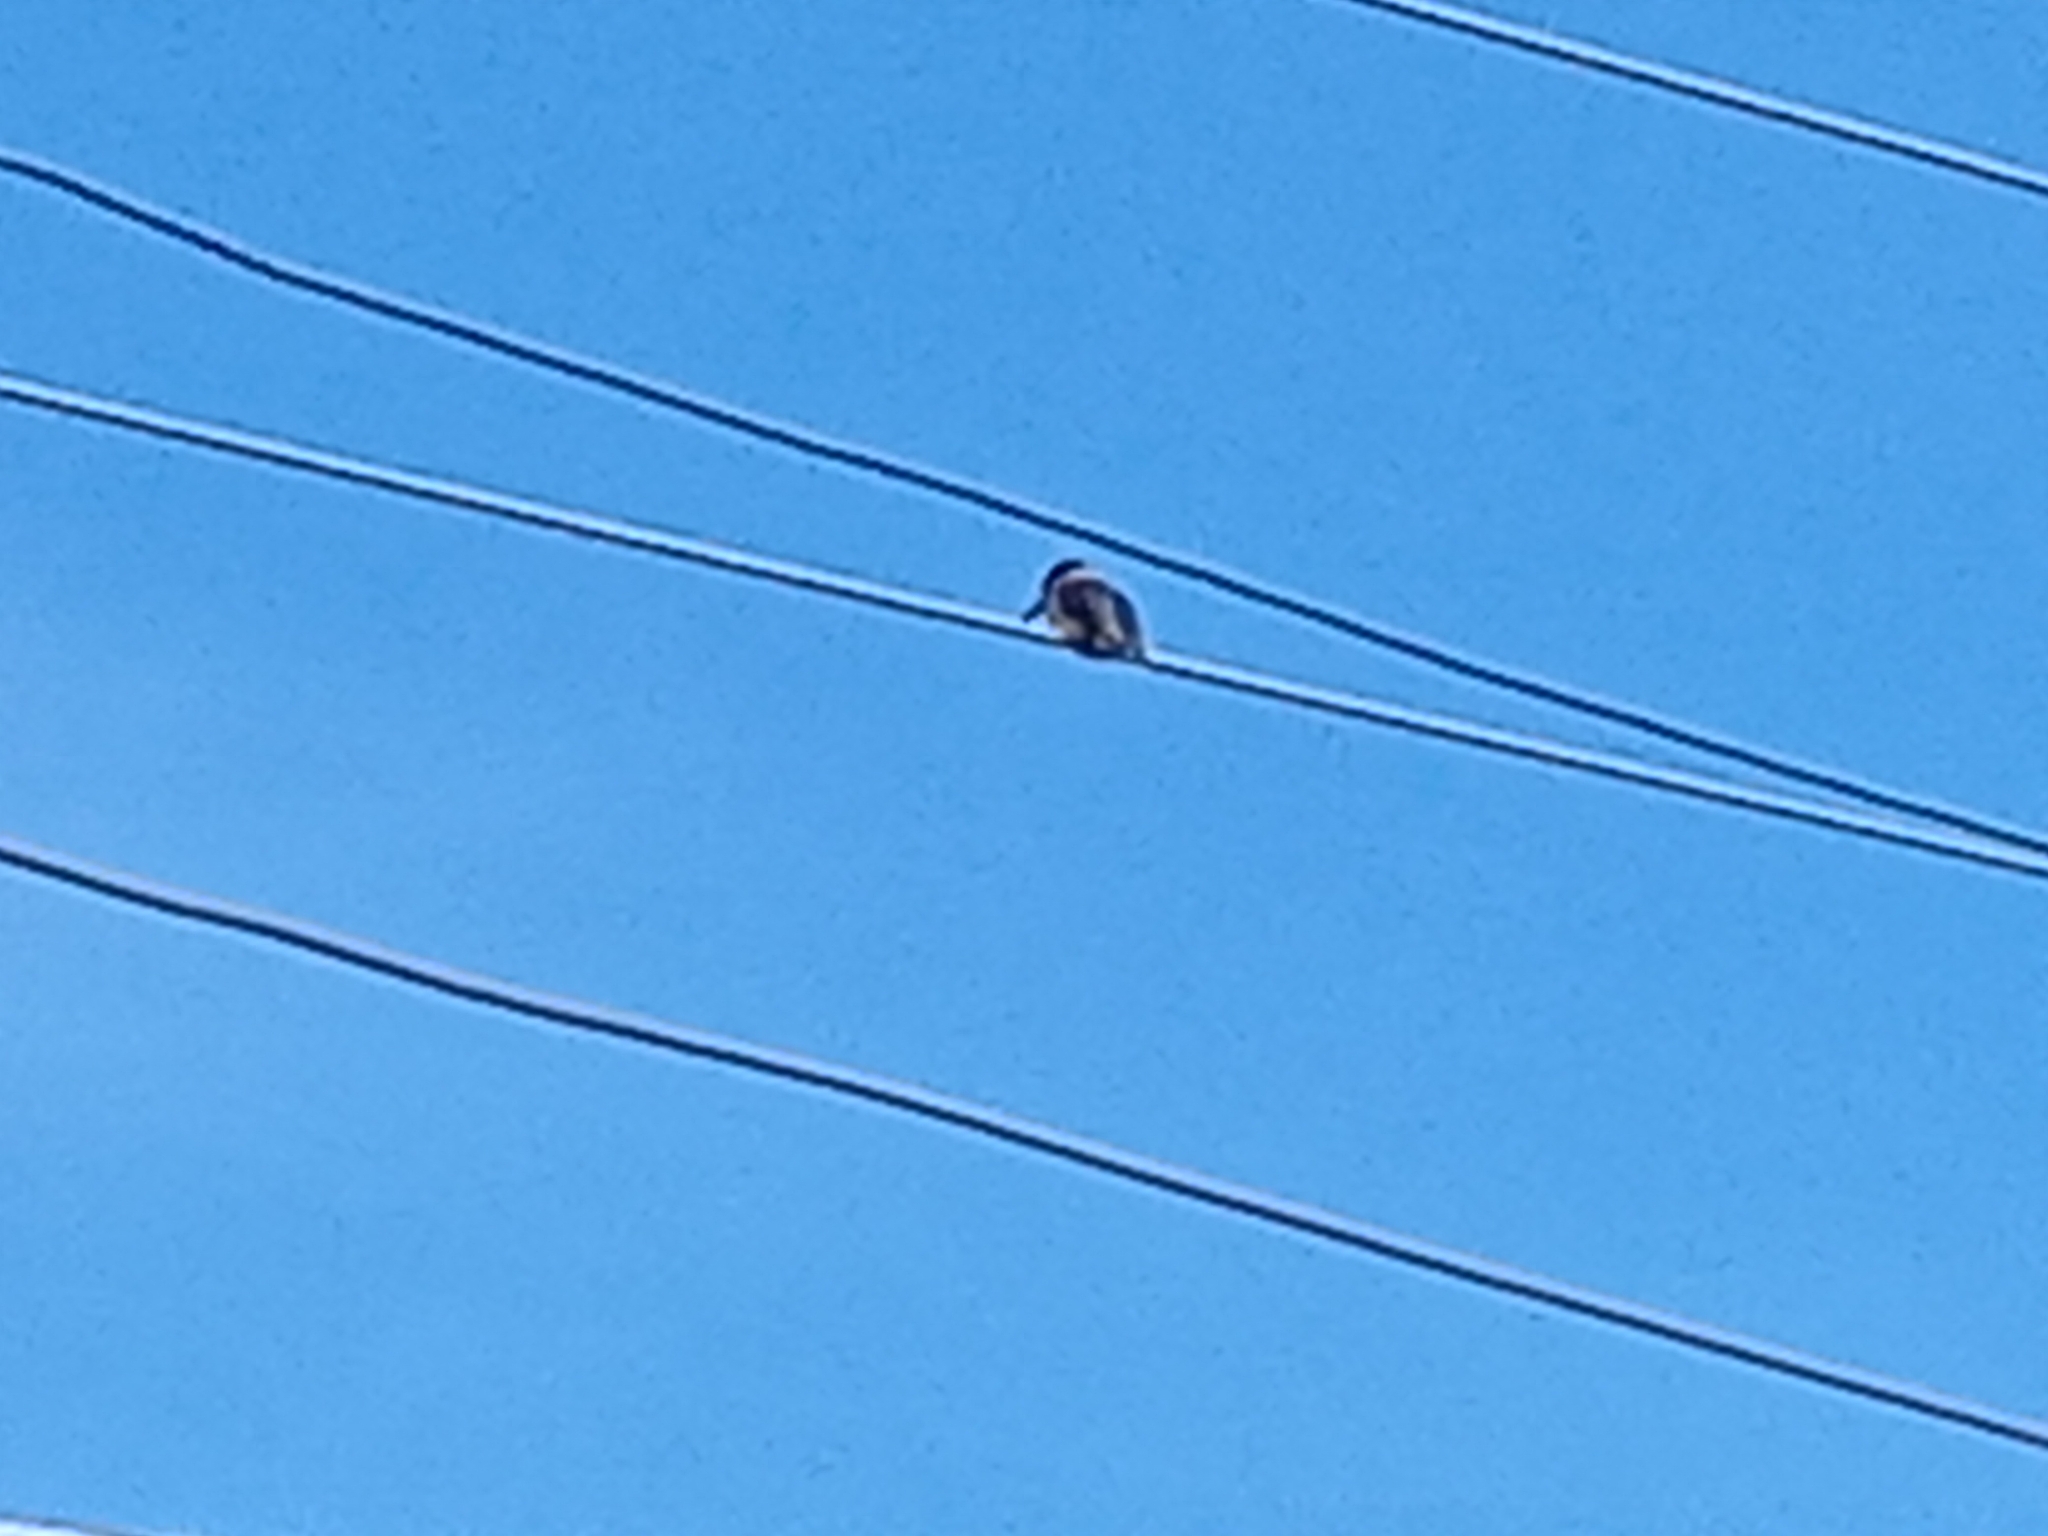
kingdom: Animalia
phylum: Chordata
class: Aves
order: Coraciiformes
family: Alcedinidae
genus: Todiramphus
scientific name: Todiramphus sanctus
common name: Sacred kingfisher
